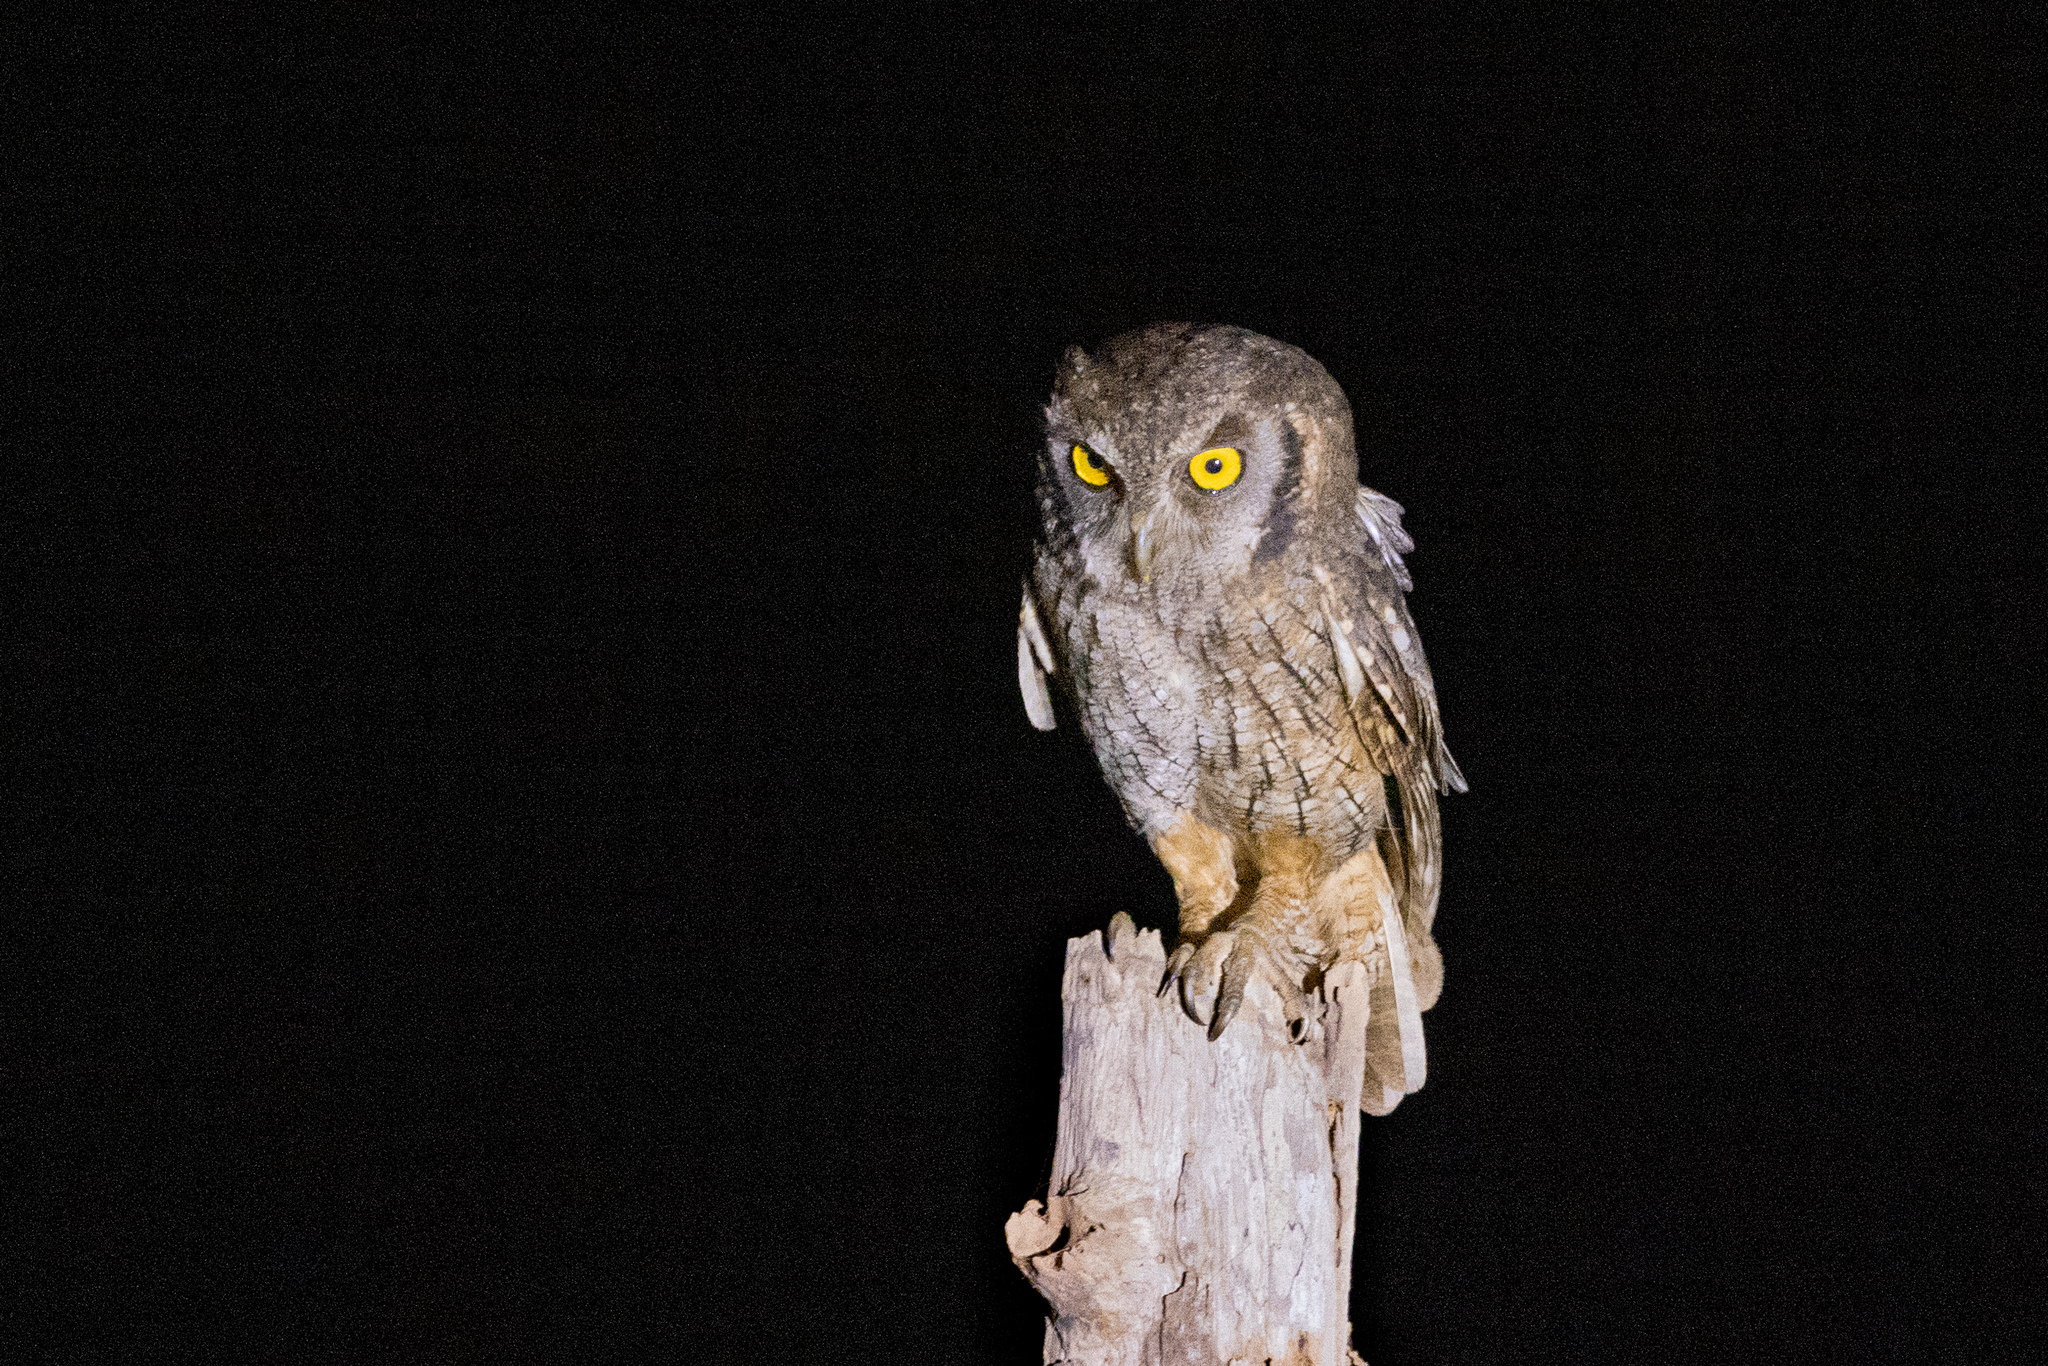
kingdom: Animalia
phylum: Chordata
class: Aves
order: Strigiformes
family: Strigidae
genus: Megascops
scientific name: Megascops choliba
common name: Tropical screech-owl
